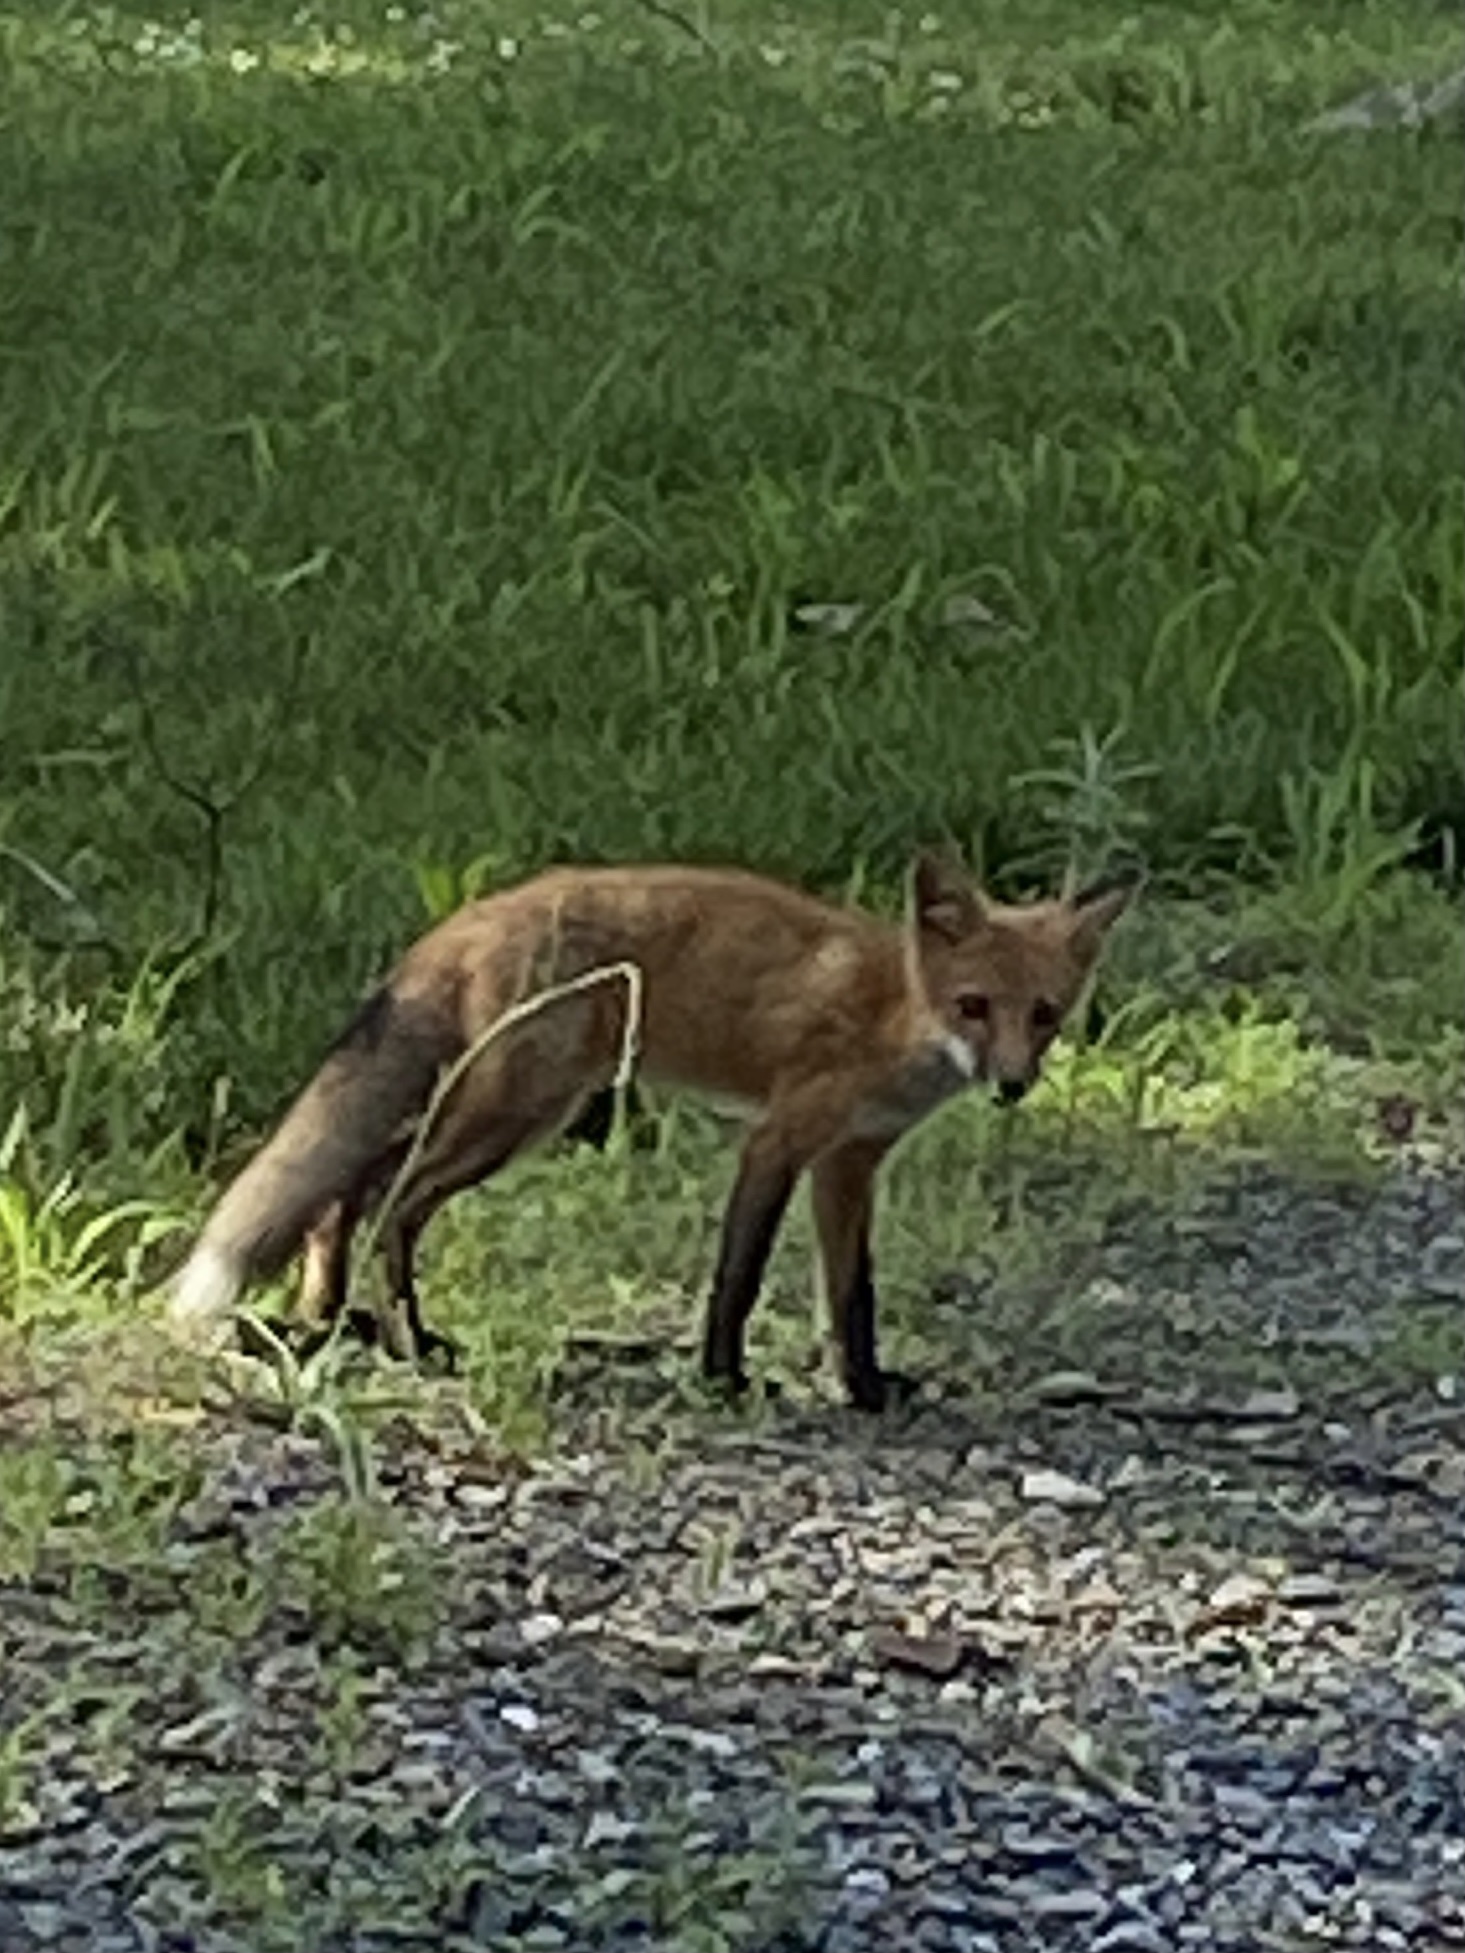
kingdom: Animalia
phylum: Chordata
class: Mammalia
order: Carnivora
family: Canidae
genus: Vulpes
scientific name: Vulpes vulpes
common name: Red fox
